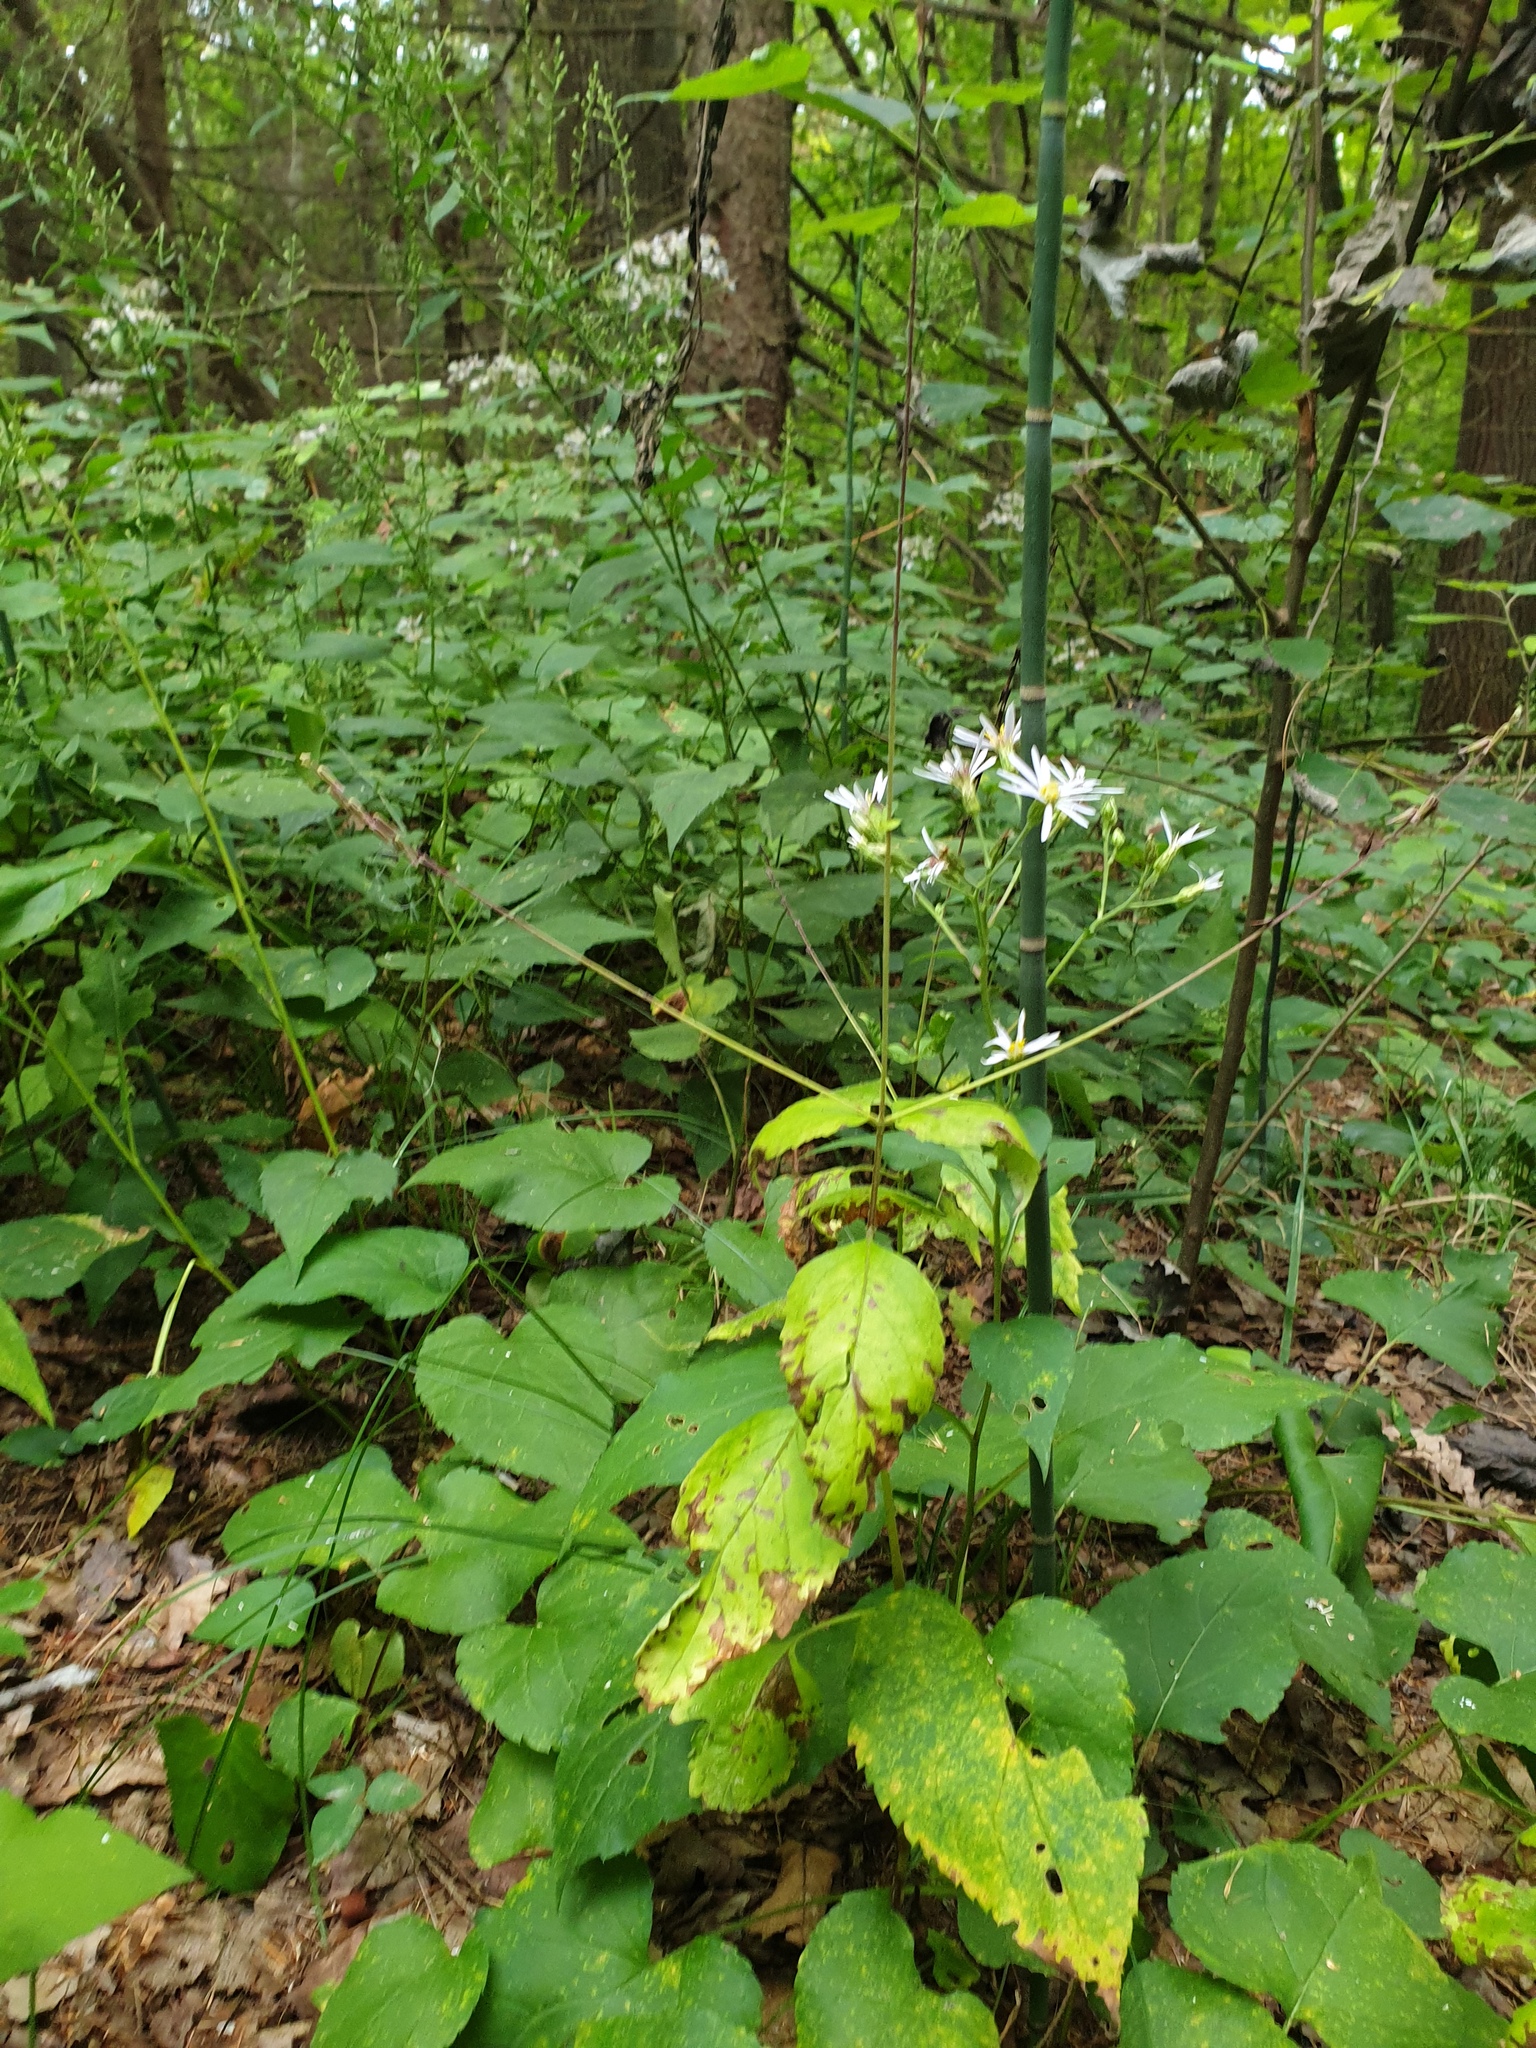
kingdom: Plantae
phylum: Tracheophyta
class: Magnoliopsida
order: Lamiales
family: Phrymaceae
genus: Phryma
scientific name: Phryma leptostachya
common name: American lopseed
